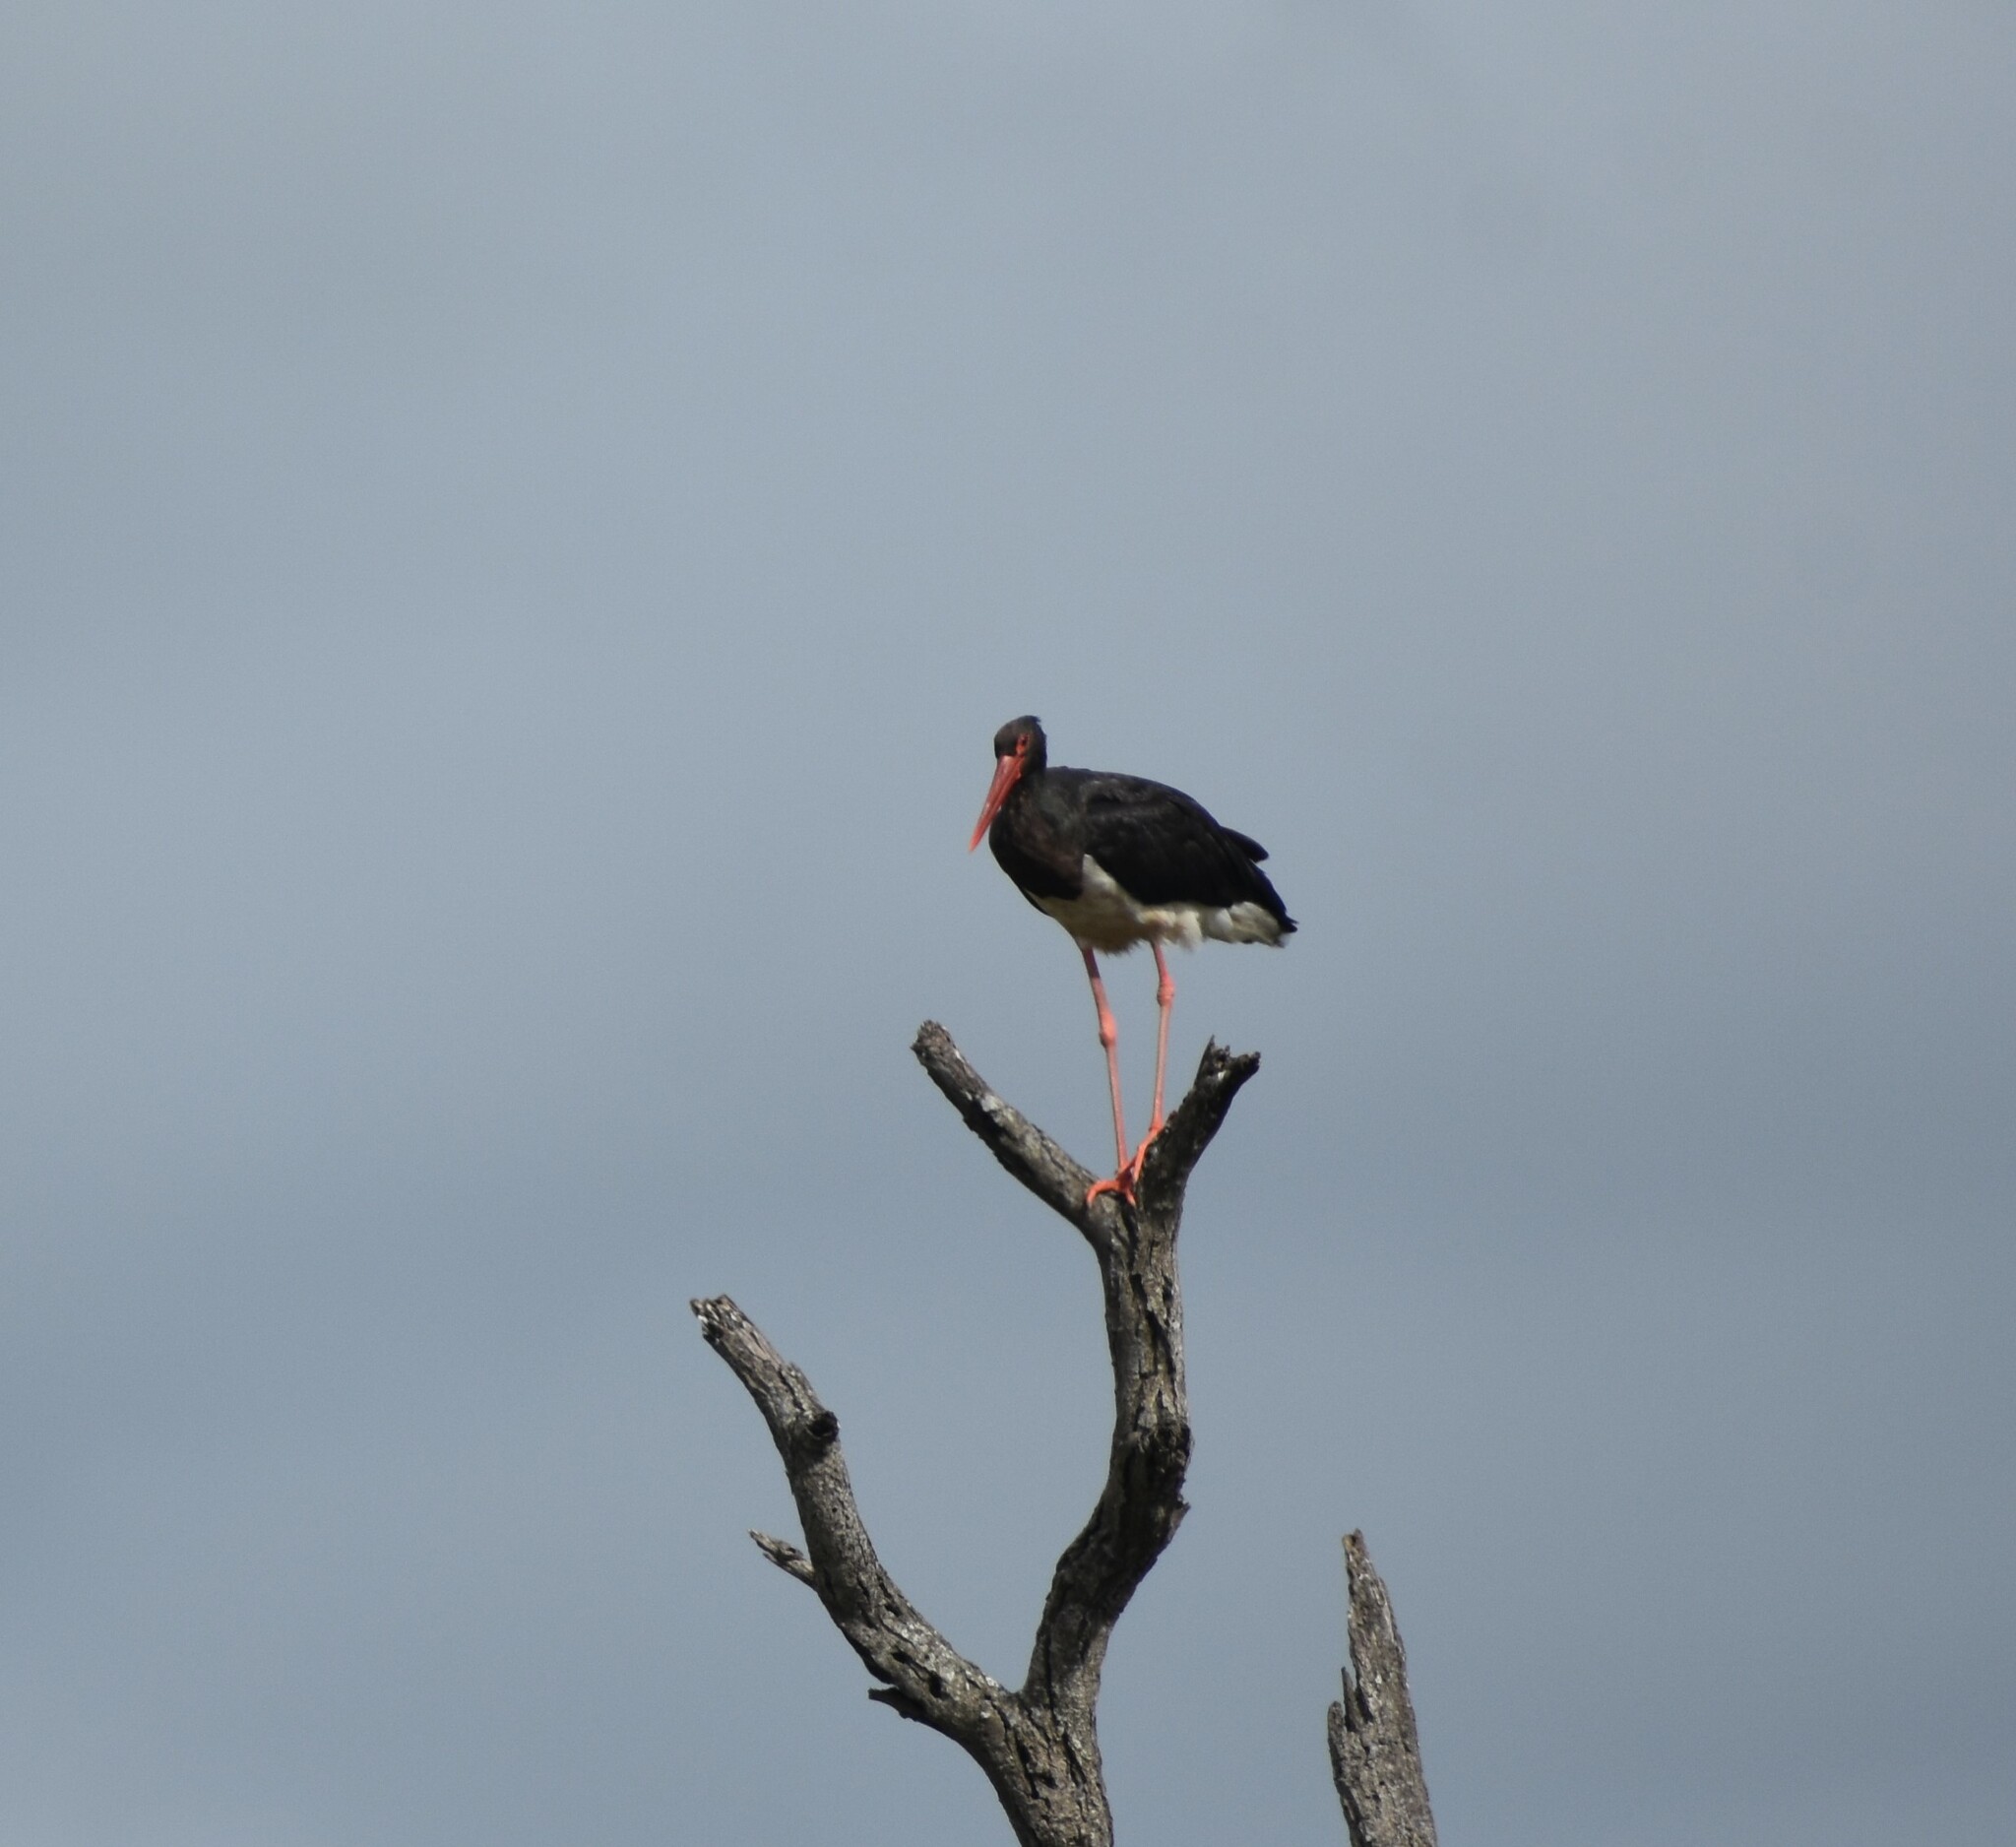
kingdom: Animalia
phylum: Chordata
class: Aves
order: Ciconiiformes
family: Ciconiidae
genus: Ciconia
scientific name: Ciconia nigra
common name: Black stork
